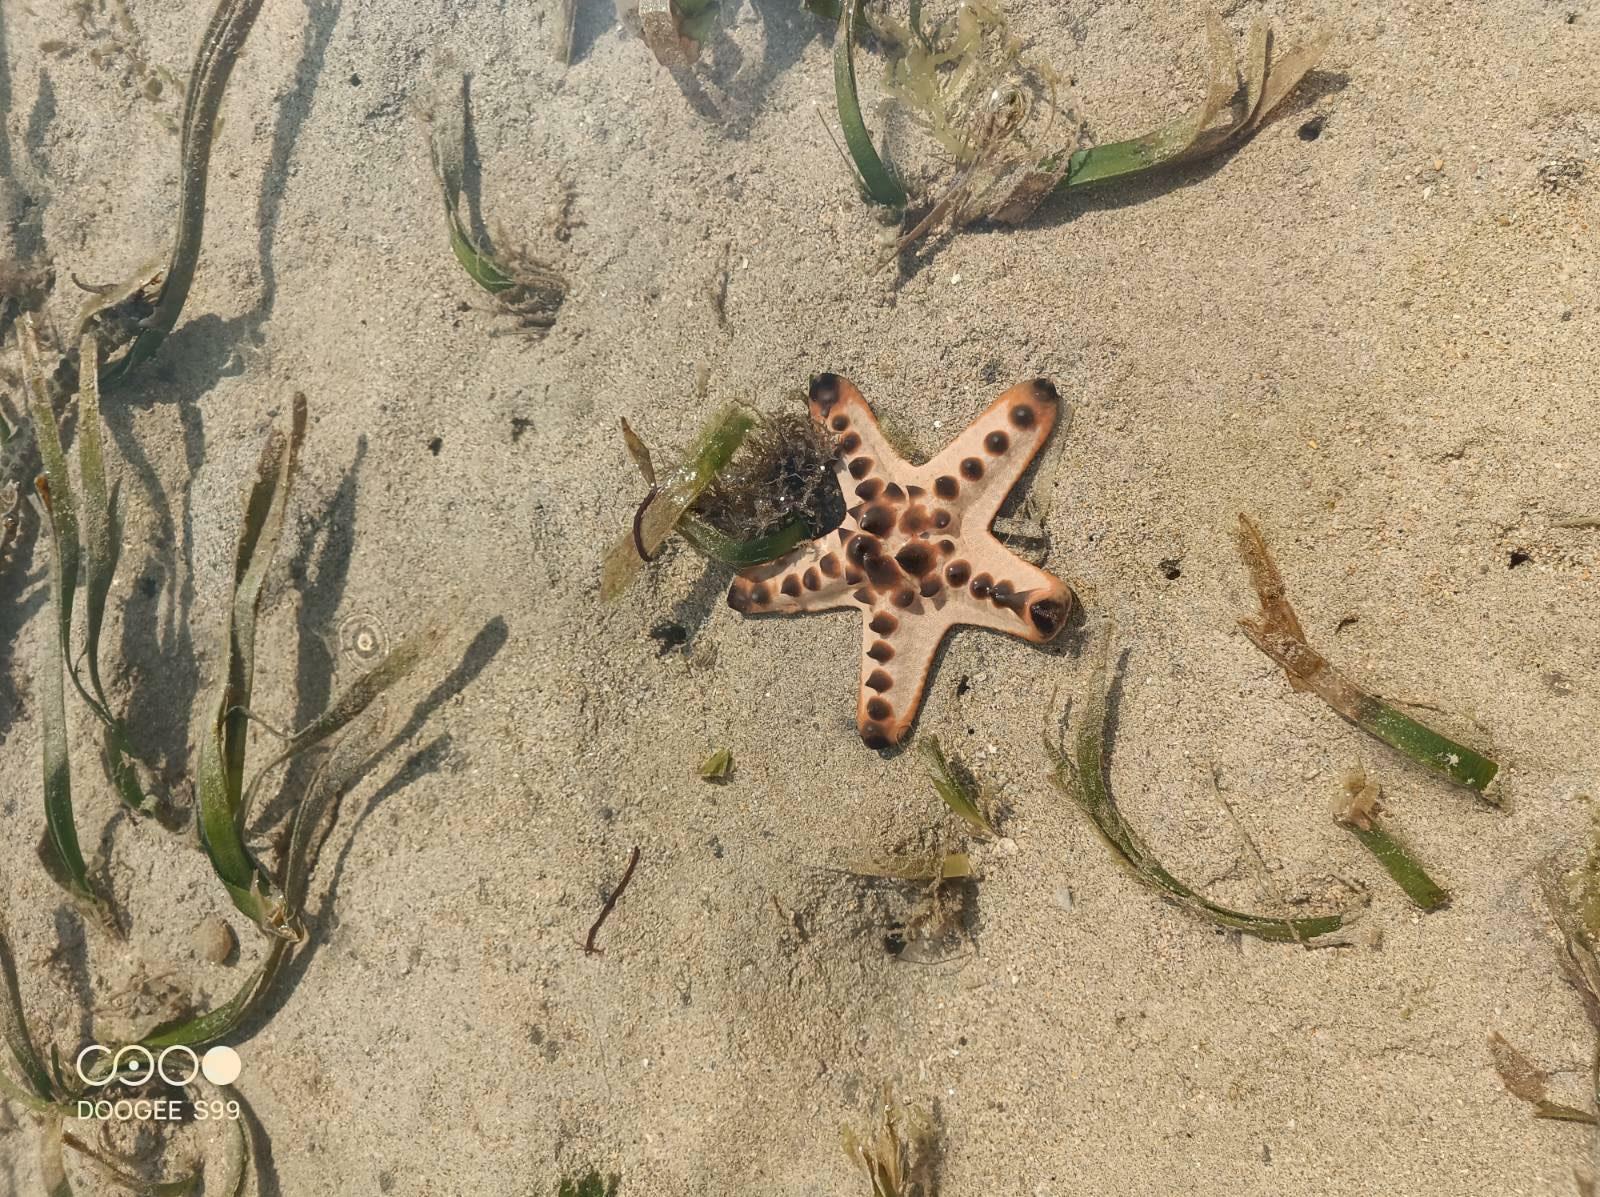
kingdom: Animalia
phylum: Echinodermata
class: Asteroidea
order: Valvatida
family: Oreasteridae
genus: Protoreaster
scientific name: Protoreaster nodosus
